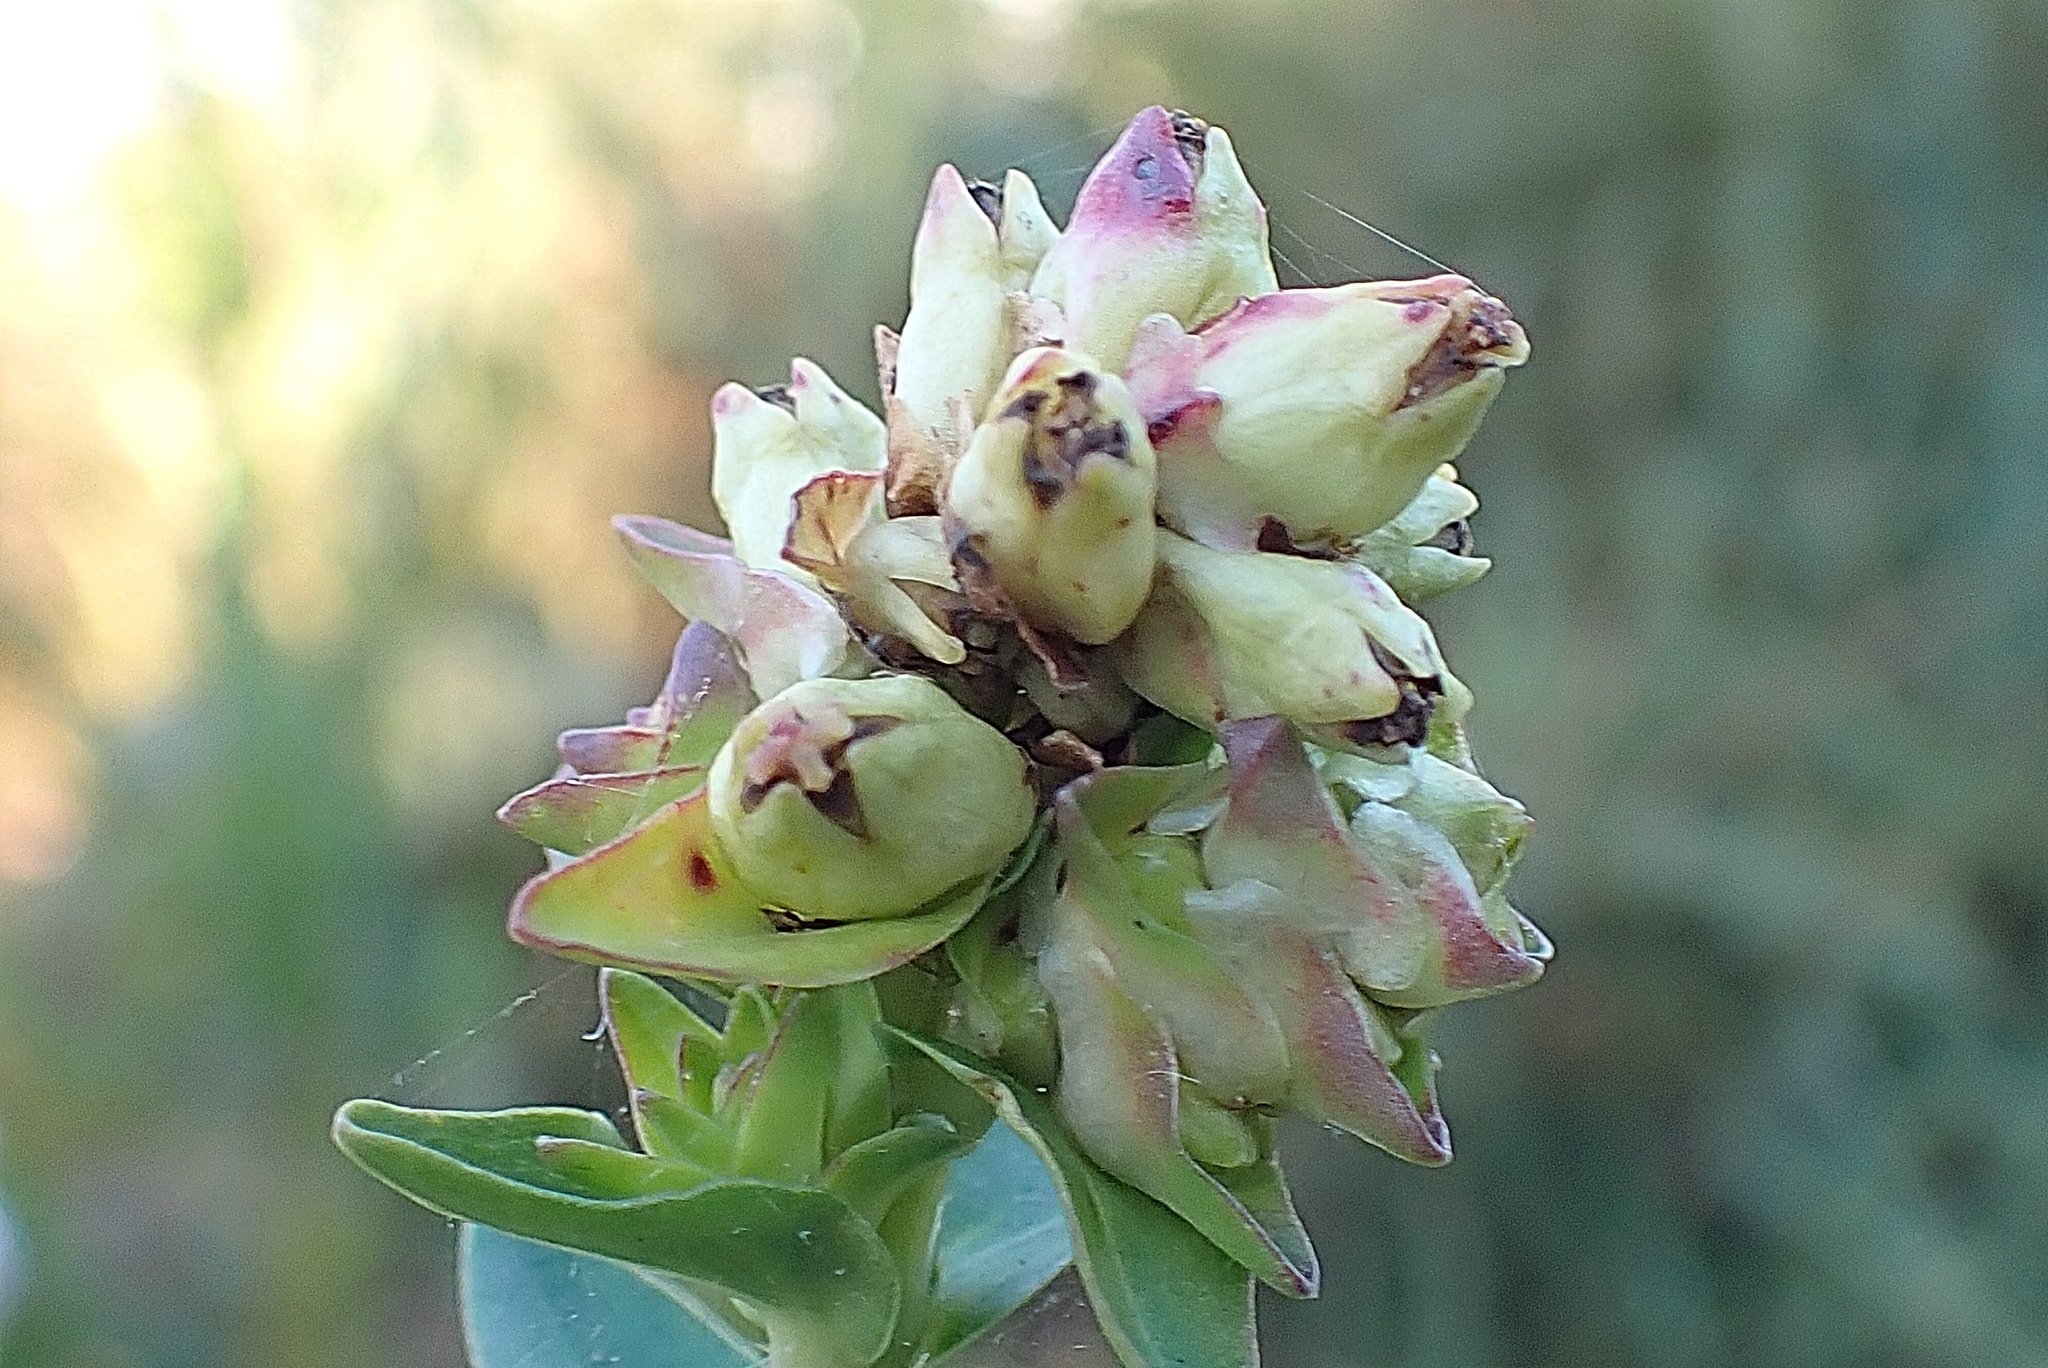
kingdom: Plantae
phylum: Tracheophyta
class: Magnoliopsida
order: Myrtales
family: Penaeaceae
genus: Penaea
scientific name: Penaea cneorum
